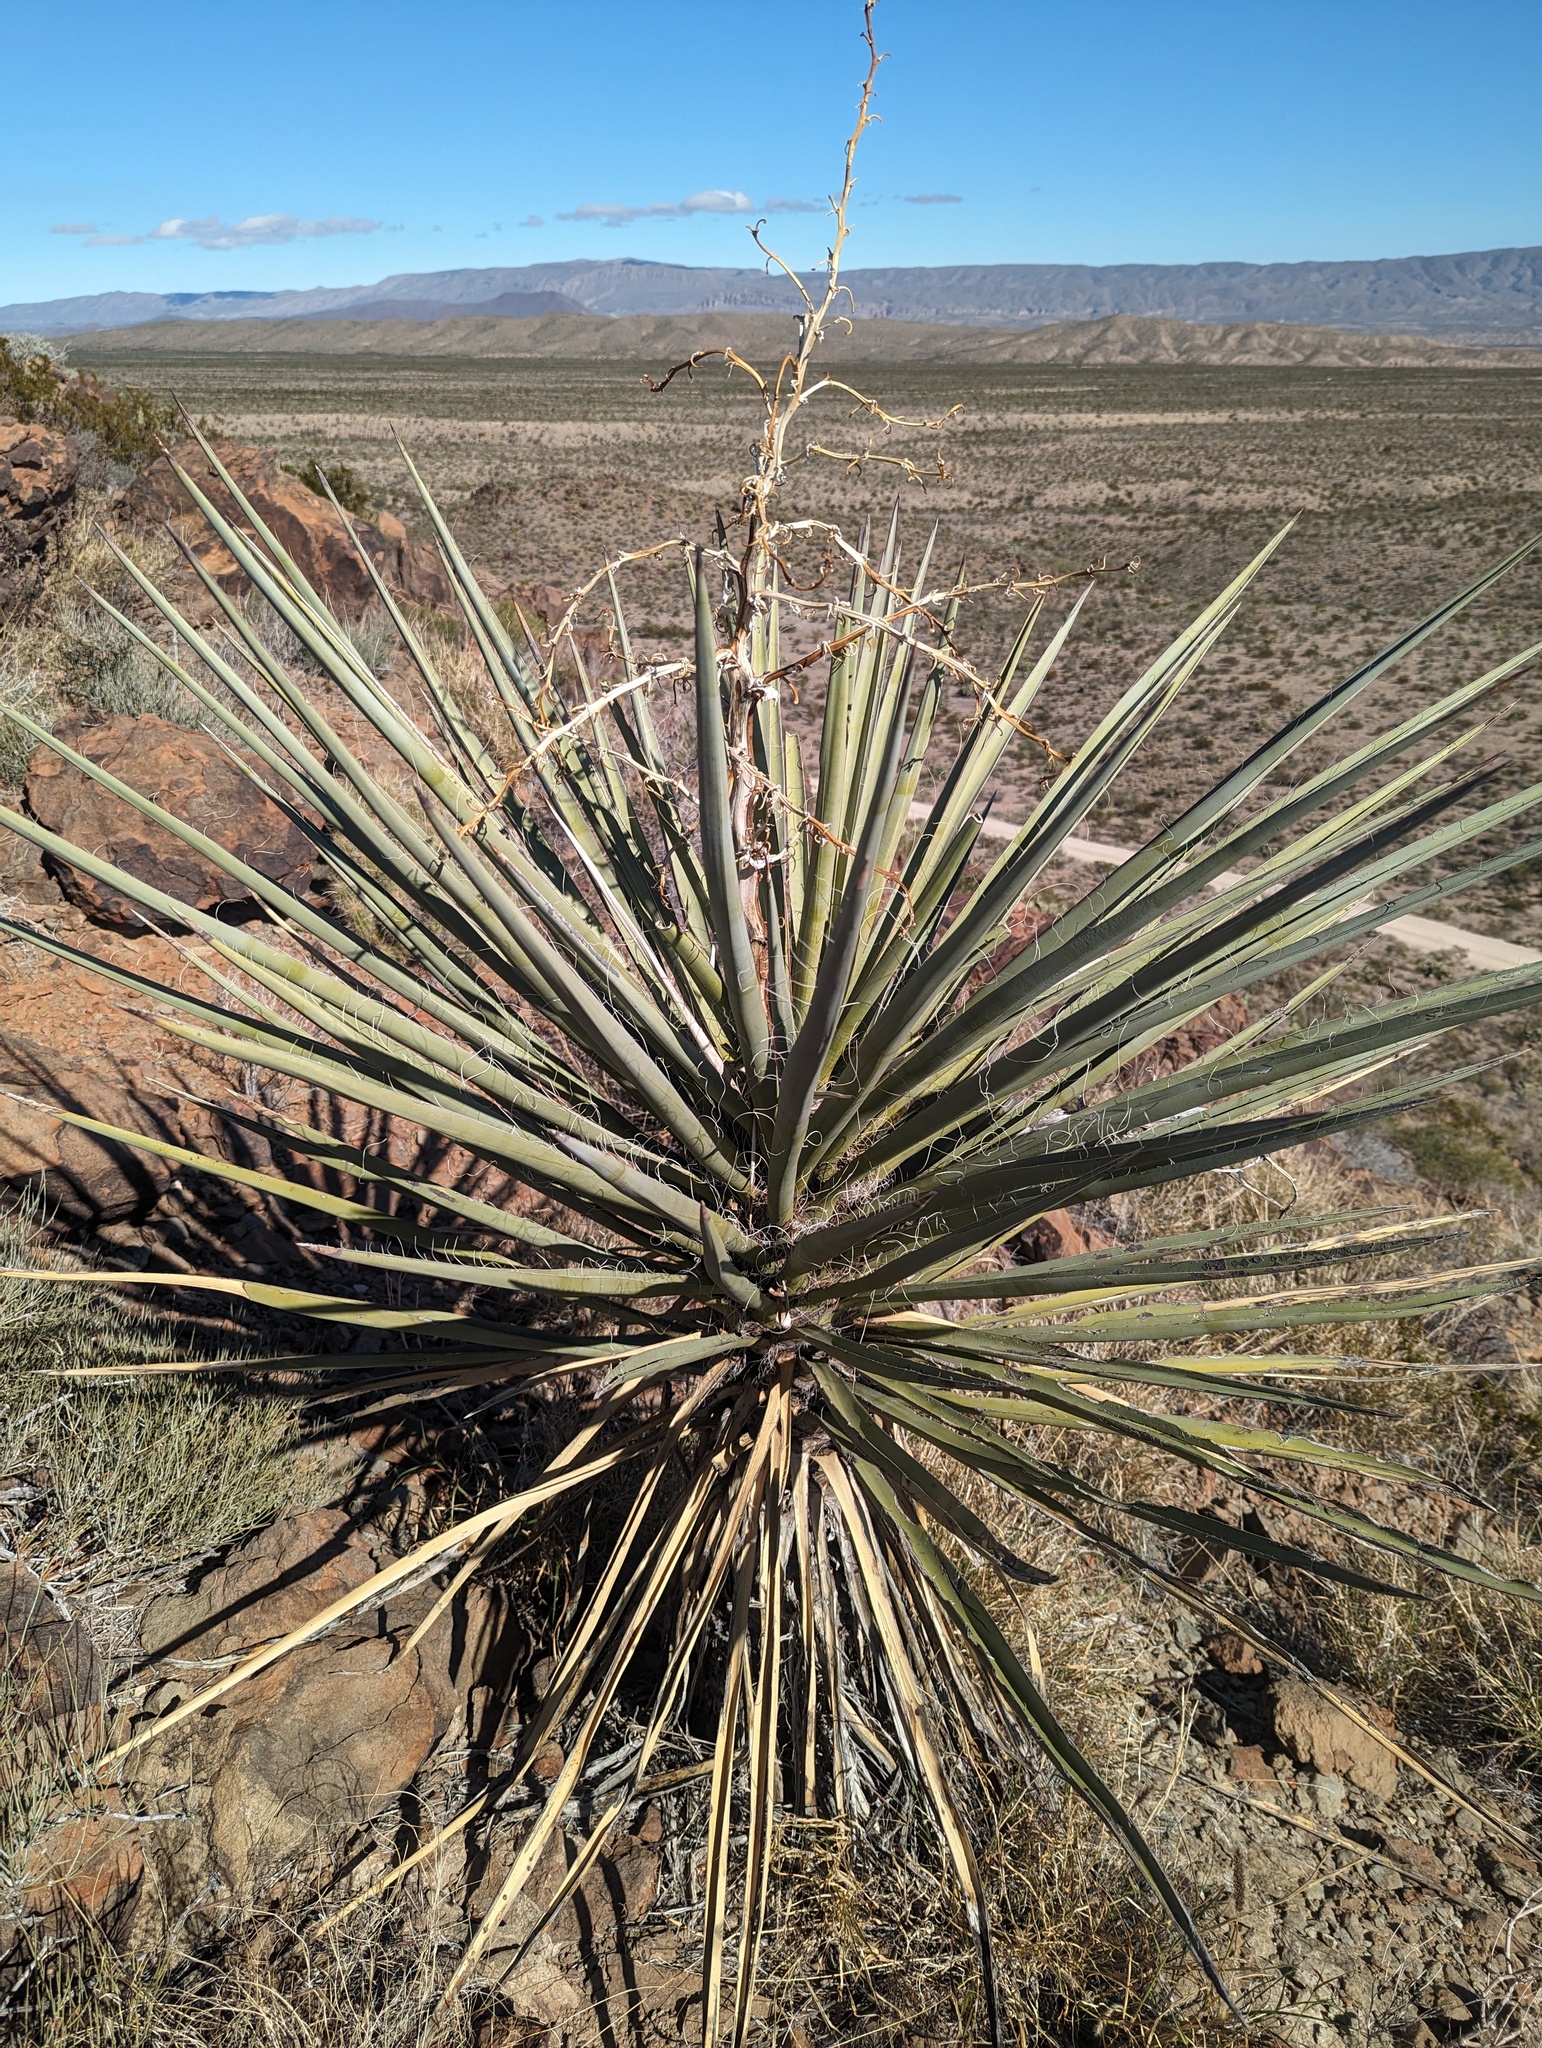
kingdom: Plantae
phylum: Tracheophyta
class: Liliopsida
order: Asparagales
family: Asparagaceae
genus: Yucca
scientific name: Yucca treculiana
